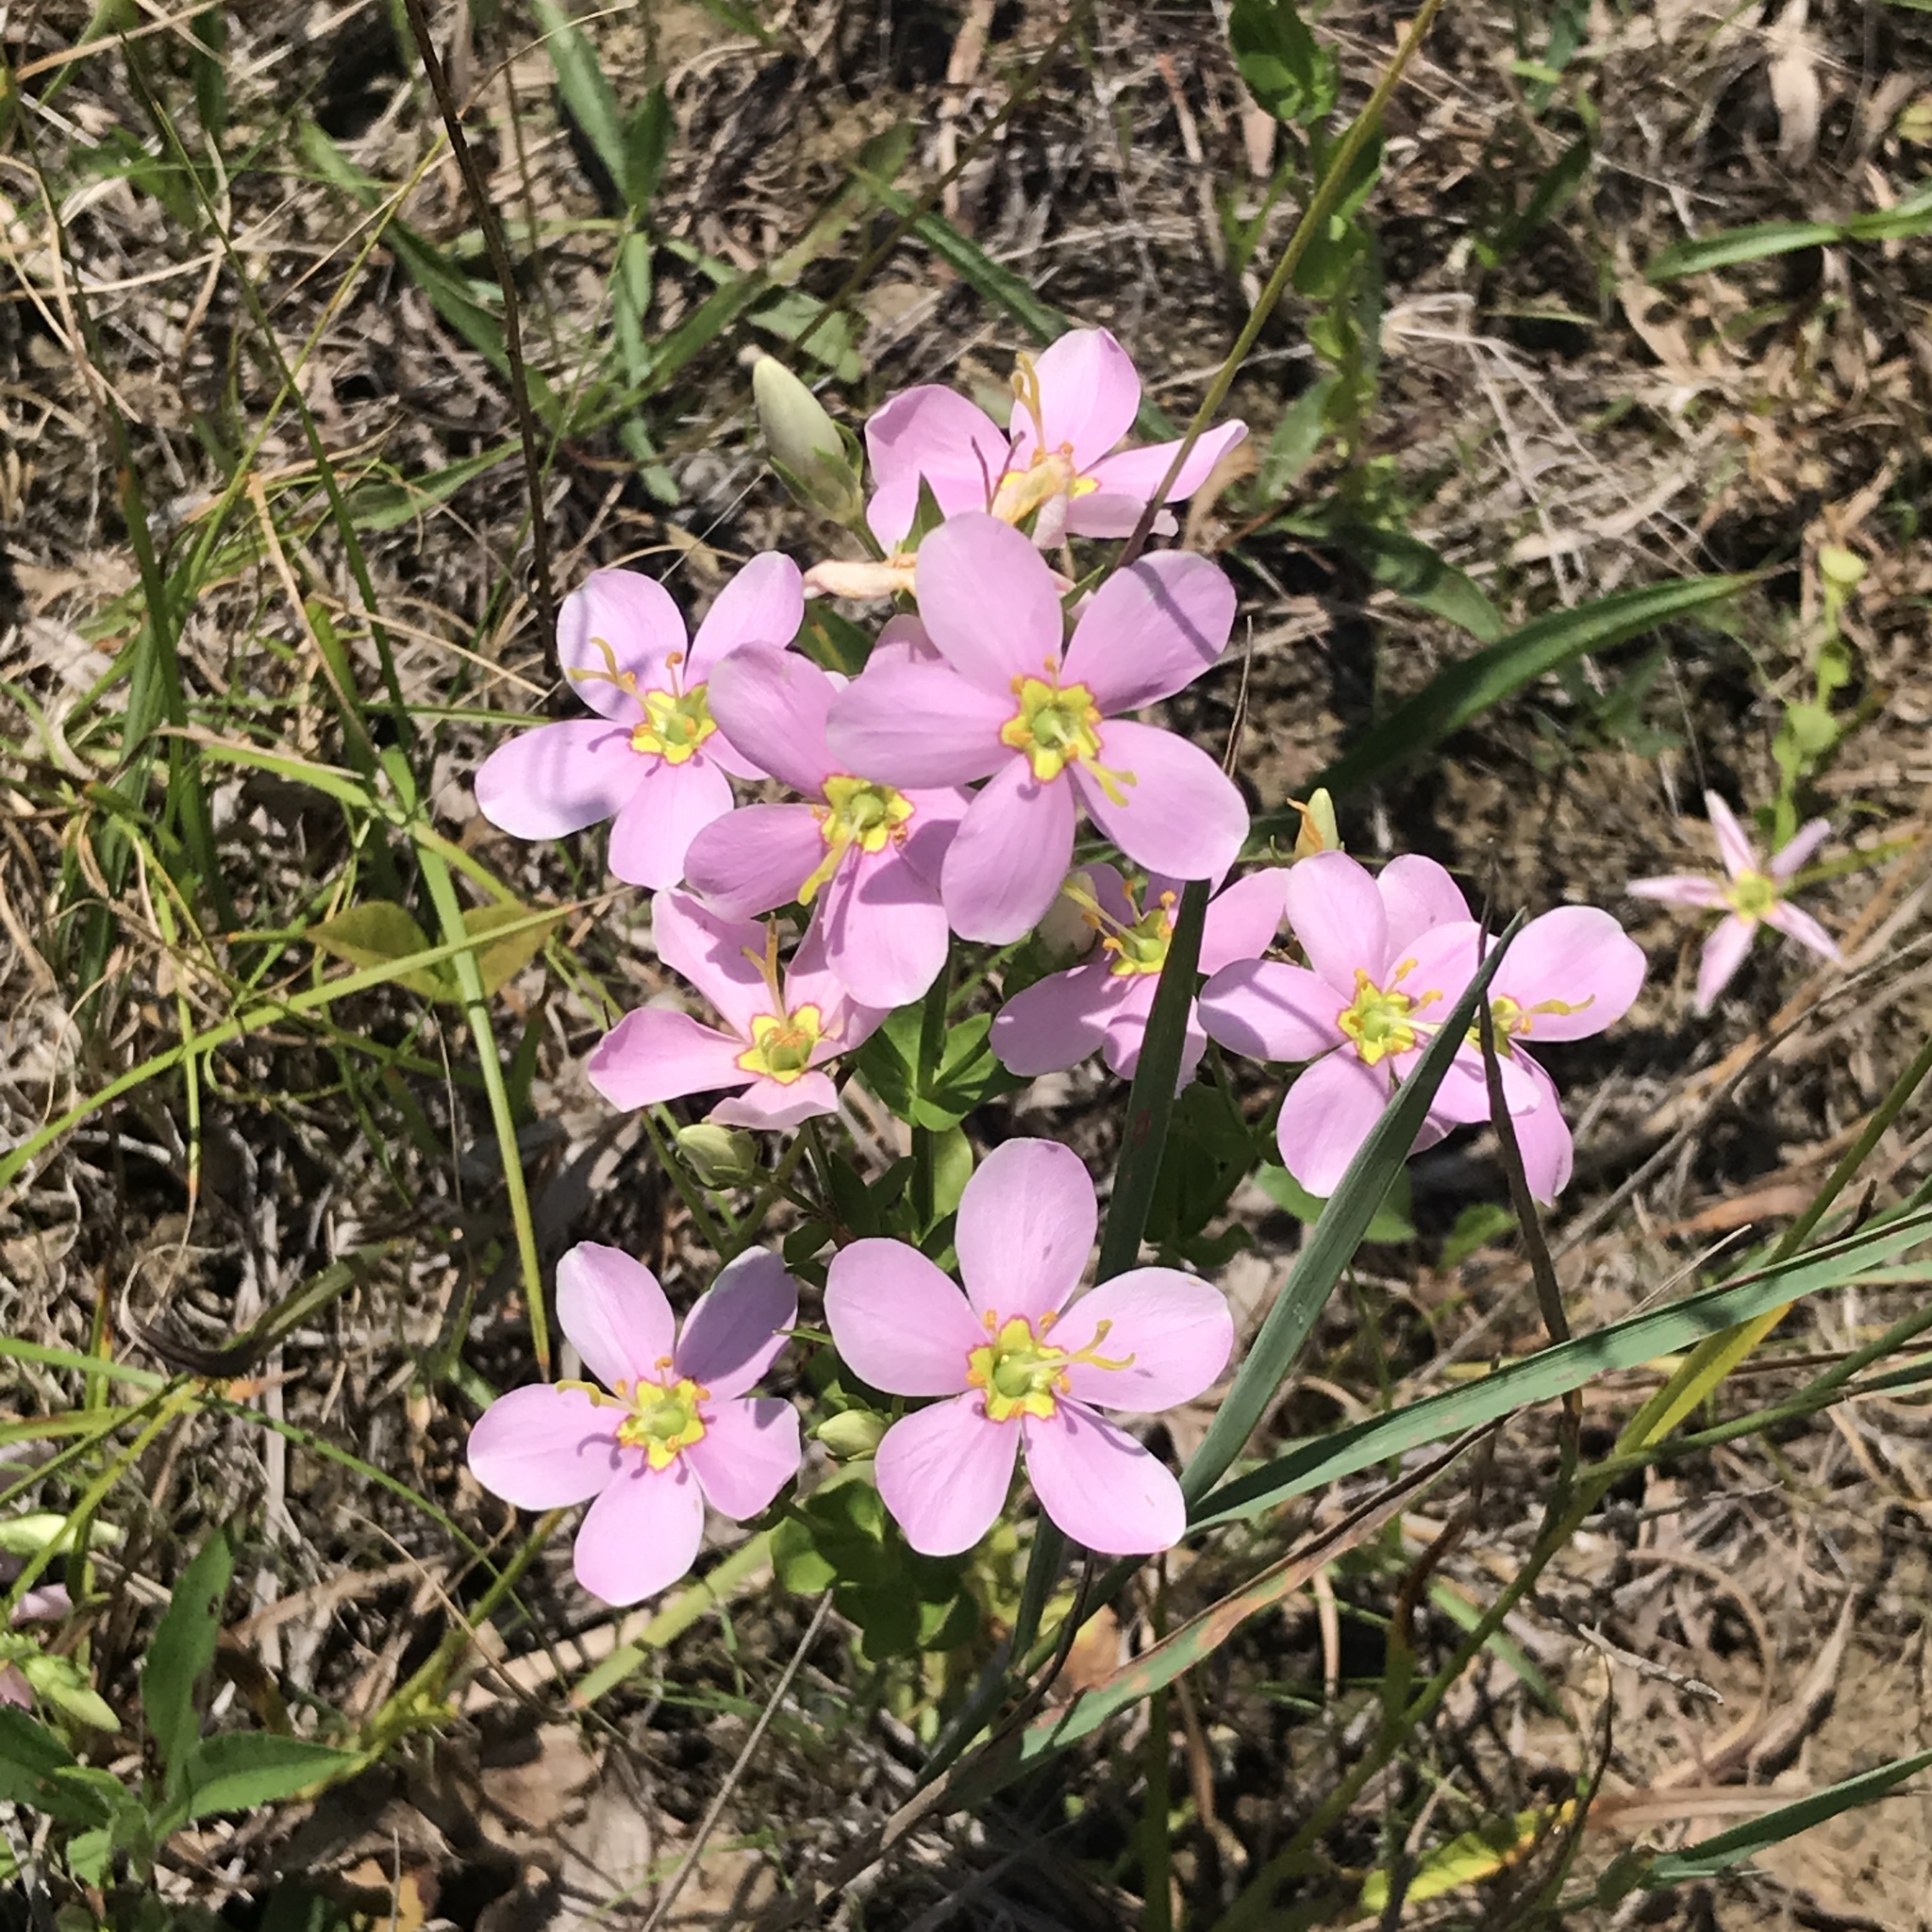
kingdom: Plantae
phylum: Tracheophyta
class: Magnoliopsida
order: Gentianales
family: Gentianaceae
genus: Sabatia
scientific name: Sabatia angularis
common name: Rose-pink
